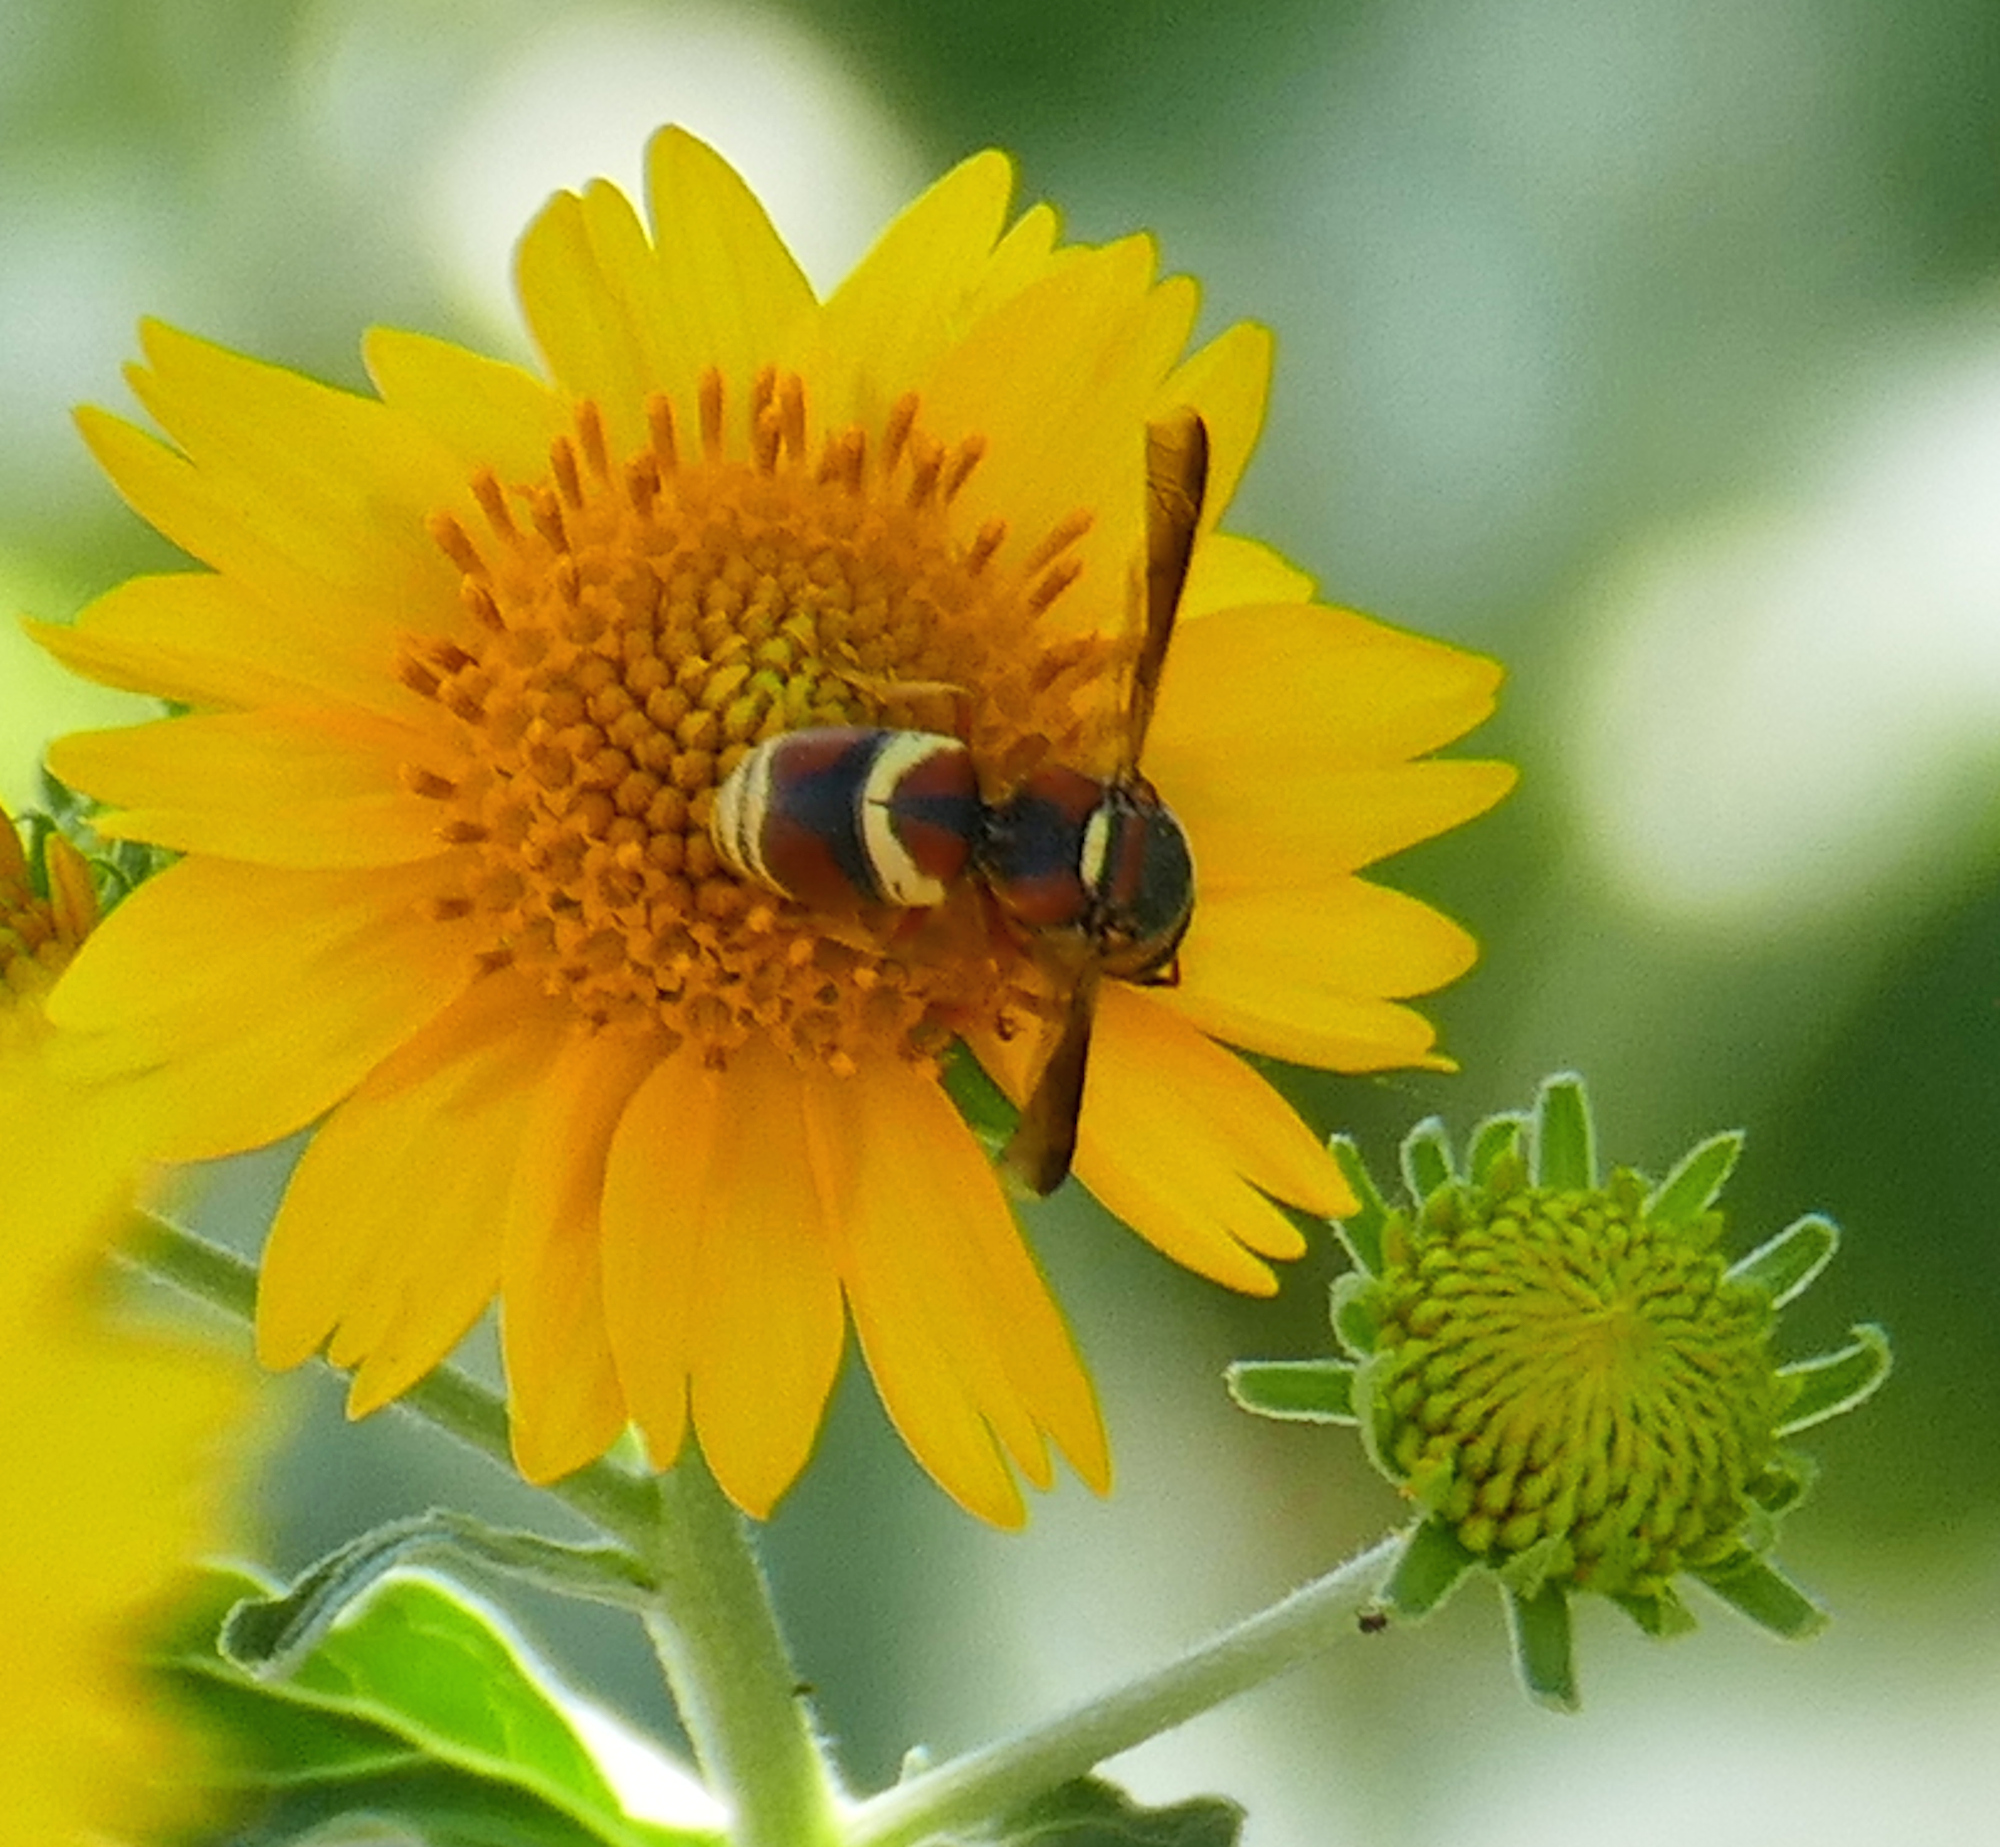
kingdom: Animalia
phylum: Arthropoda
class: Insecta
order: Hymenoptera
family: Eumenidae
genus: Euodynerus
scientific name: Euodynerus hidalgo
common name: Wasp
